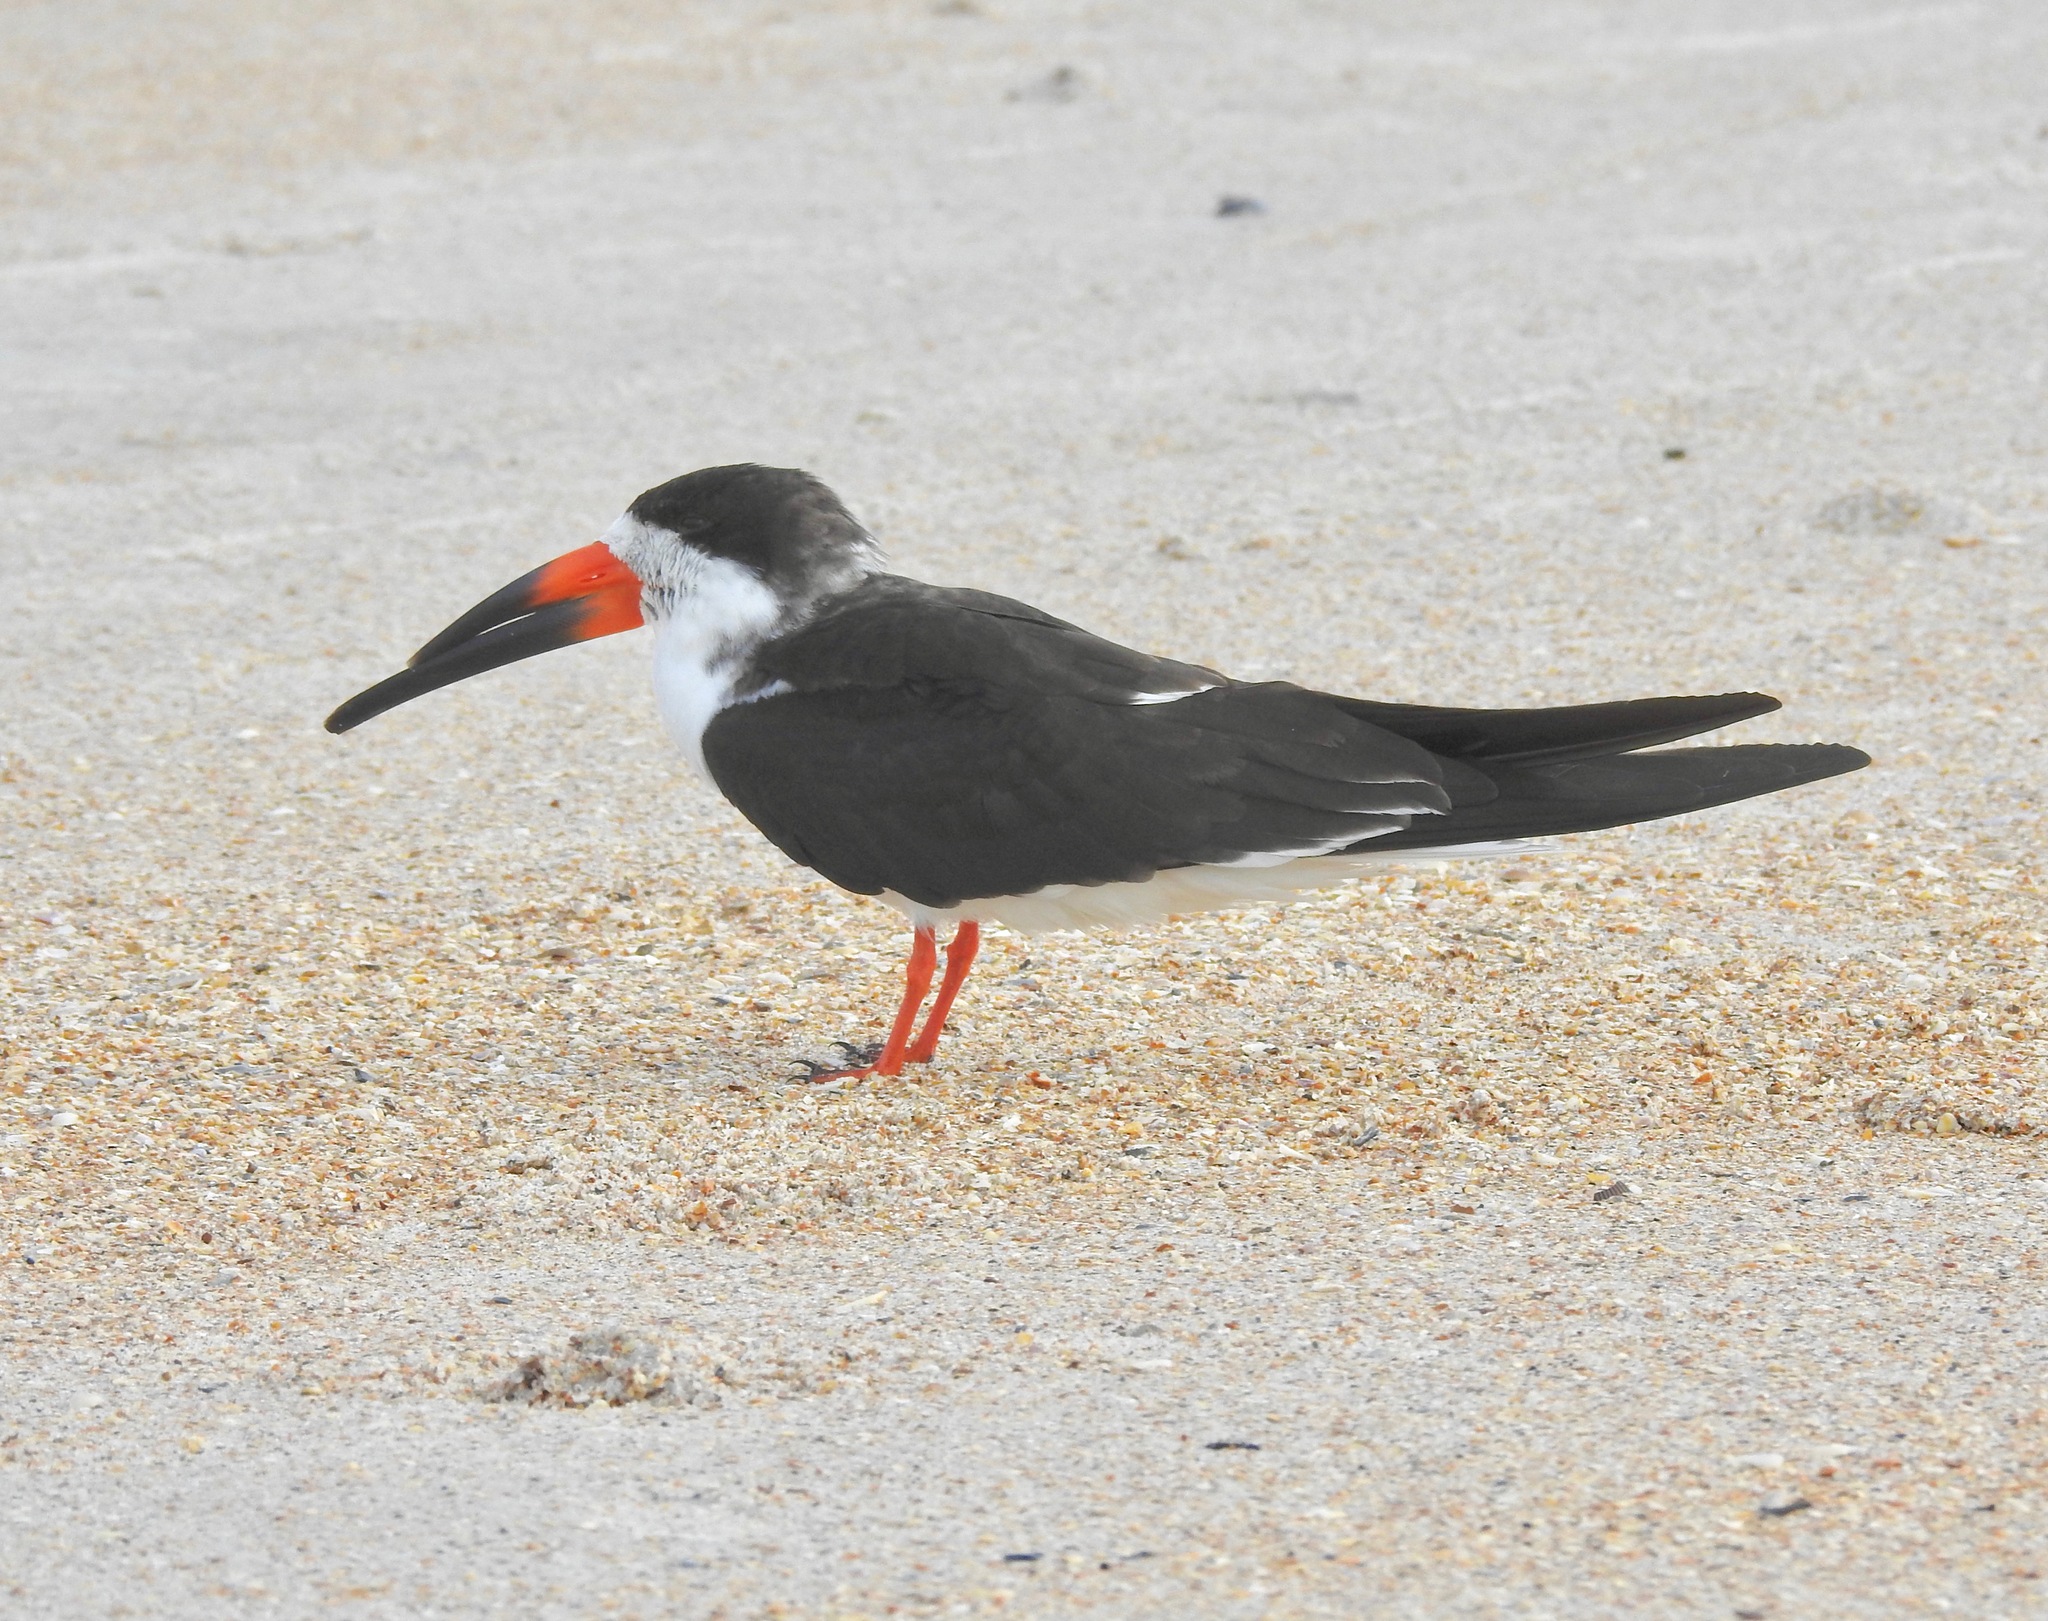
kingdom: Animalia
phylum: Chordata
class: Aves
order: Charadriiformes
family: Laridae
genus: Rynchops
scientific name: Rynchops niger
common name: Black skimmer
